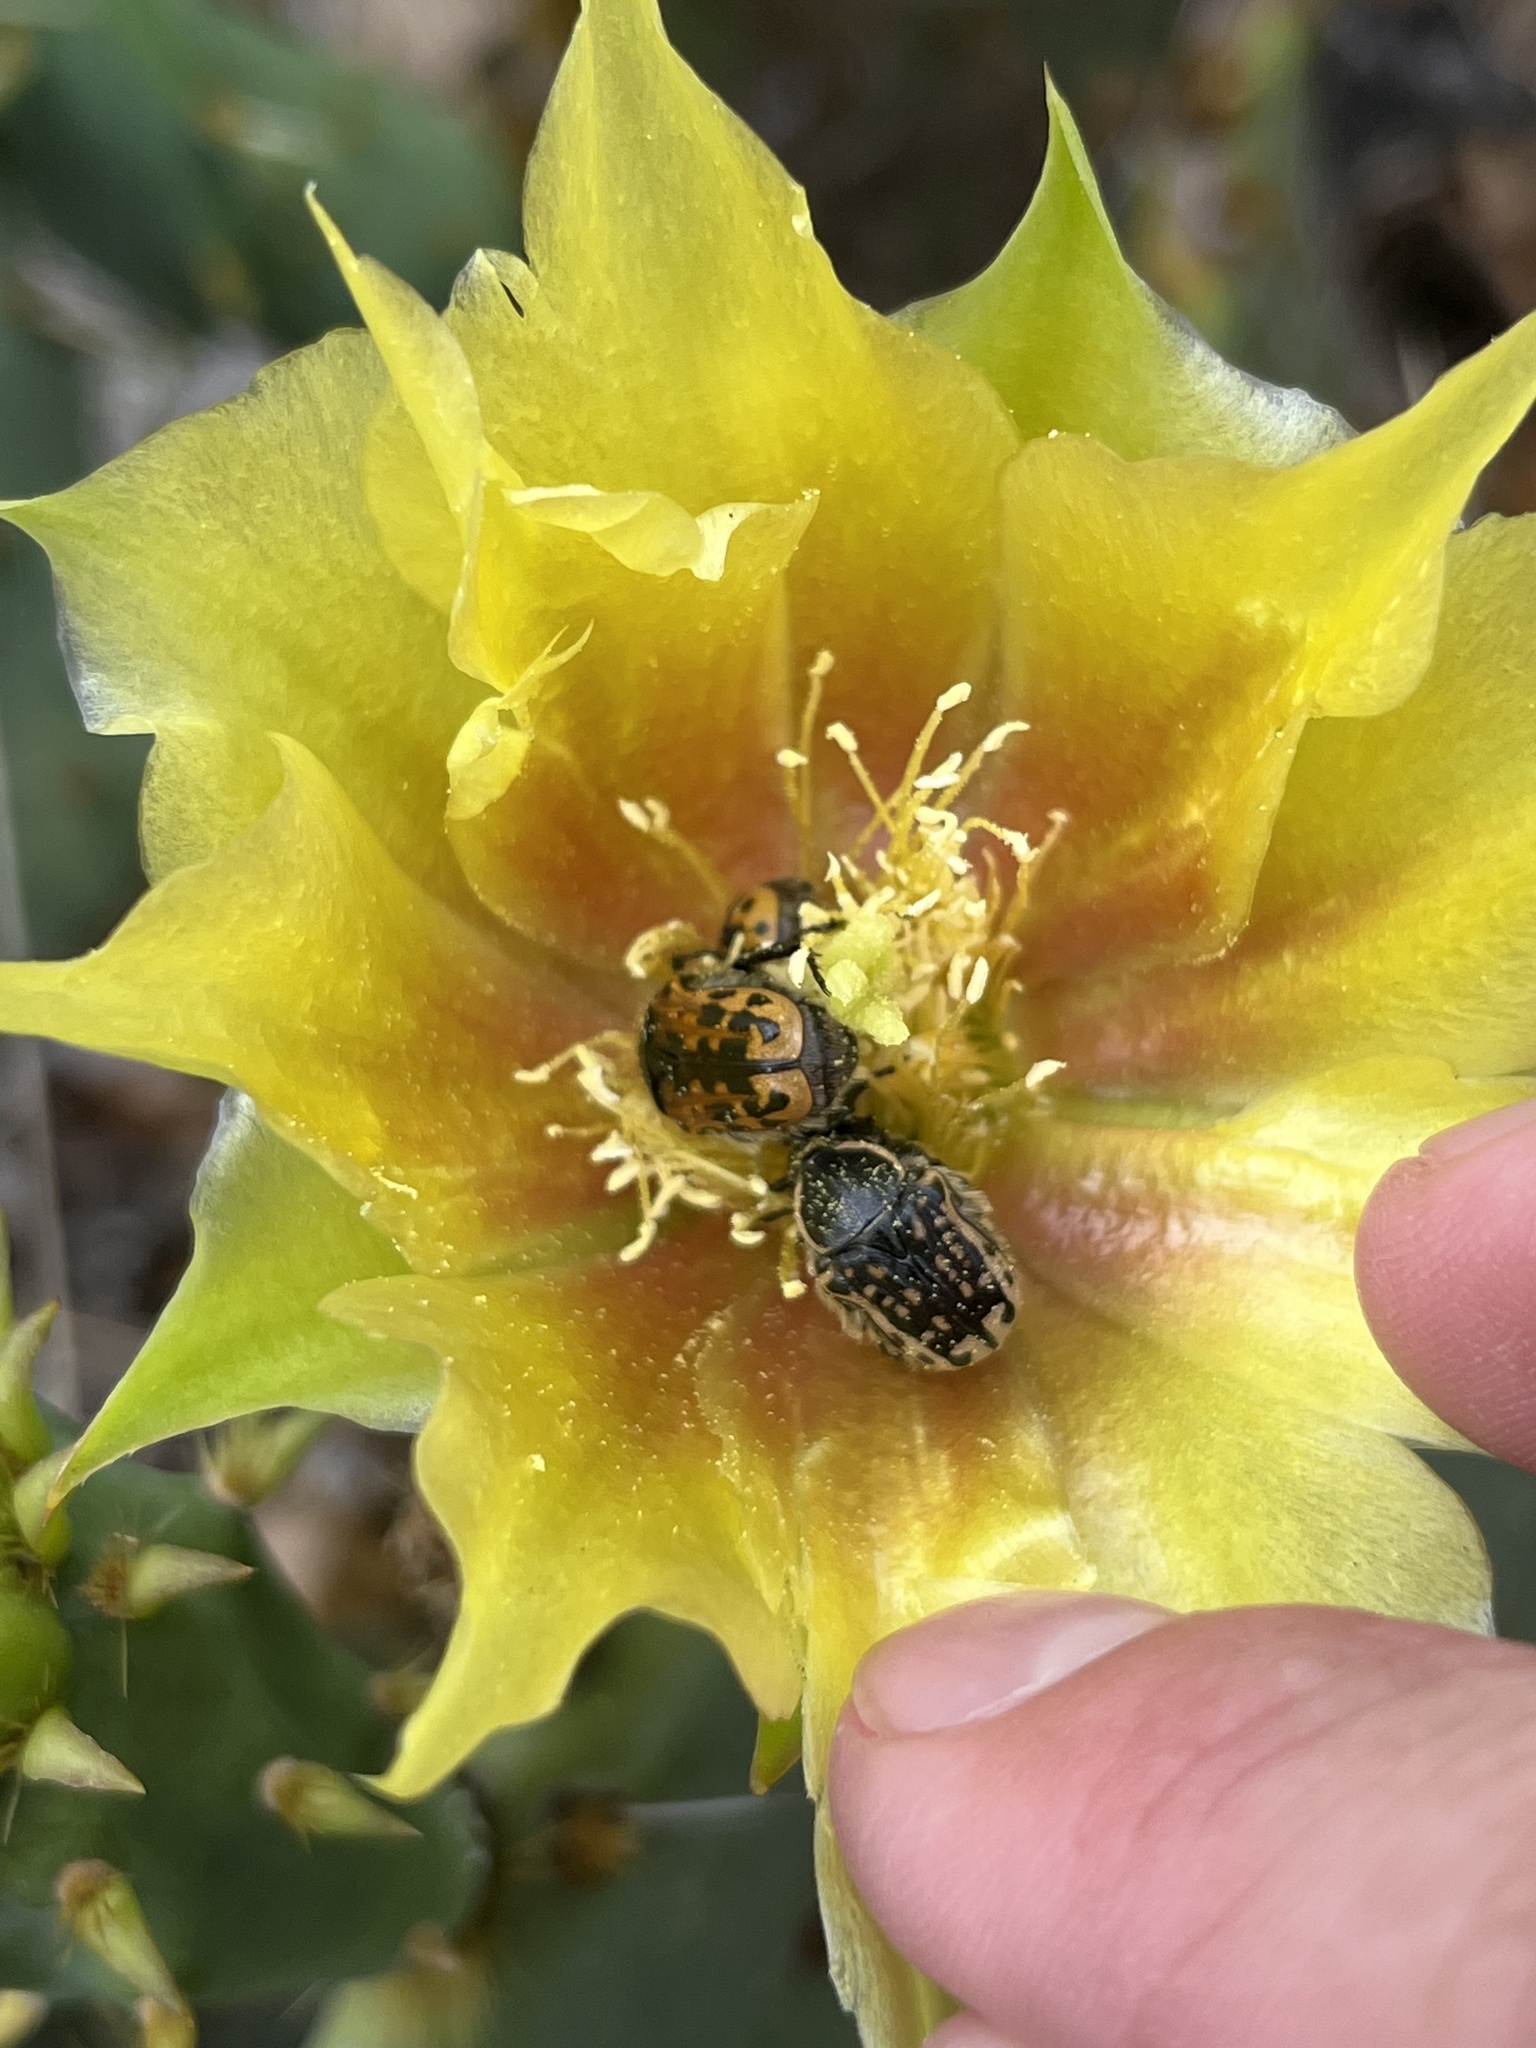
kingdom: Animalia
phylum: Arthropoda
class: Insecta
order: Coleoptera
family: Scarabaeidae
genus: Euphoria
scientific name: Euphoria kernii
